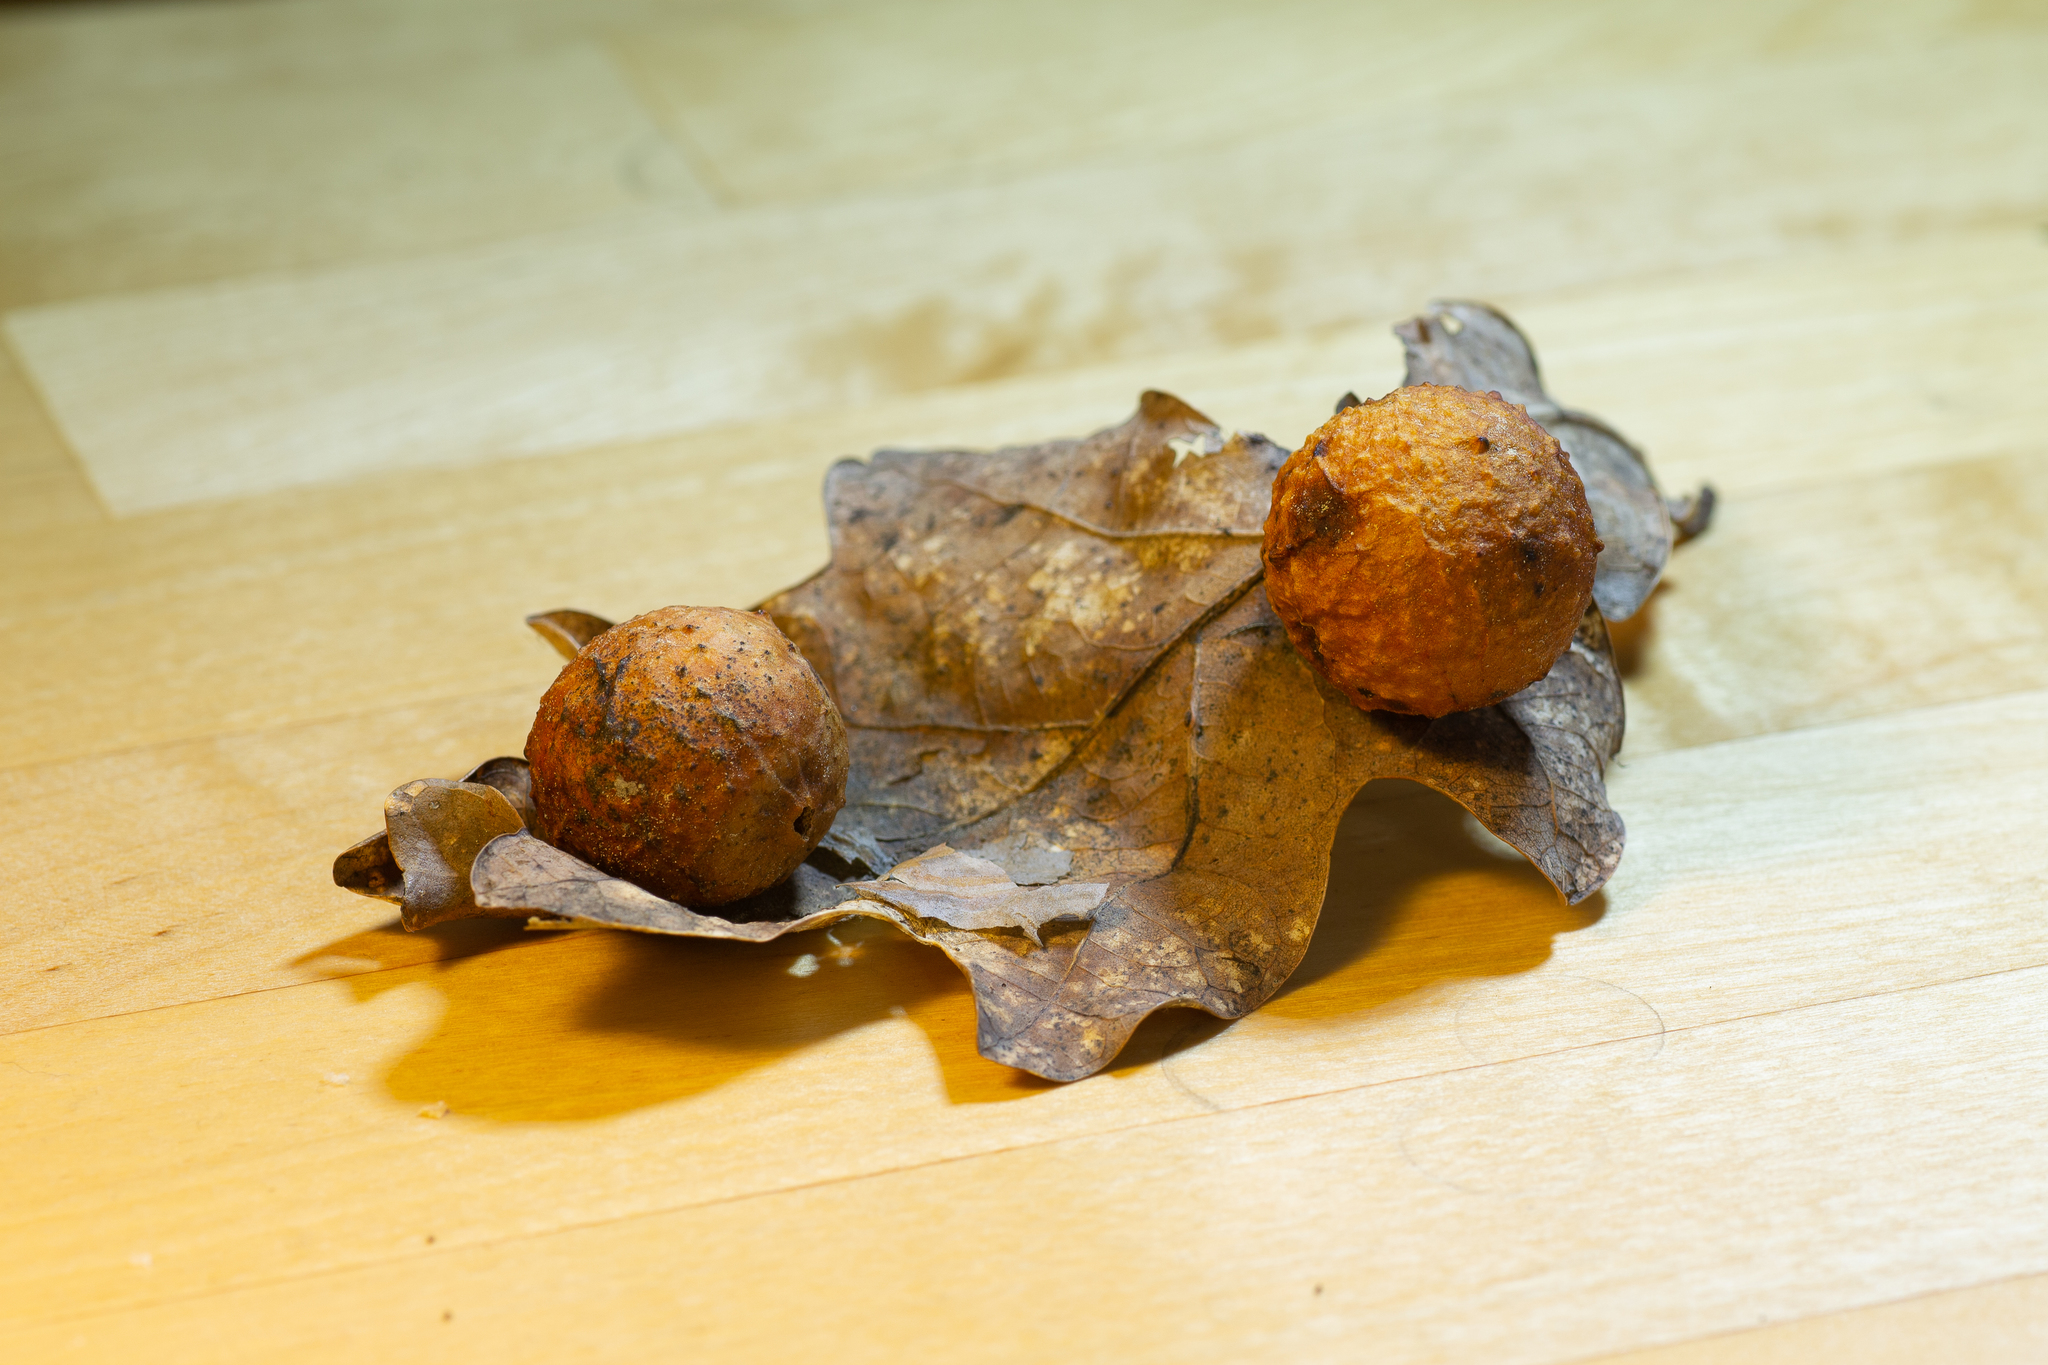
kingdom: Animalia
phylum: Arthropoda
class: Insecta
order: Hymenoptera
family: Cynipidae
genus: Cynips
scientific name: Cynips quercusfolii
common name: Cherry gall
